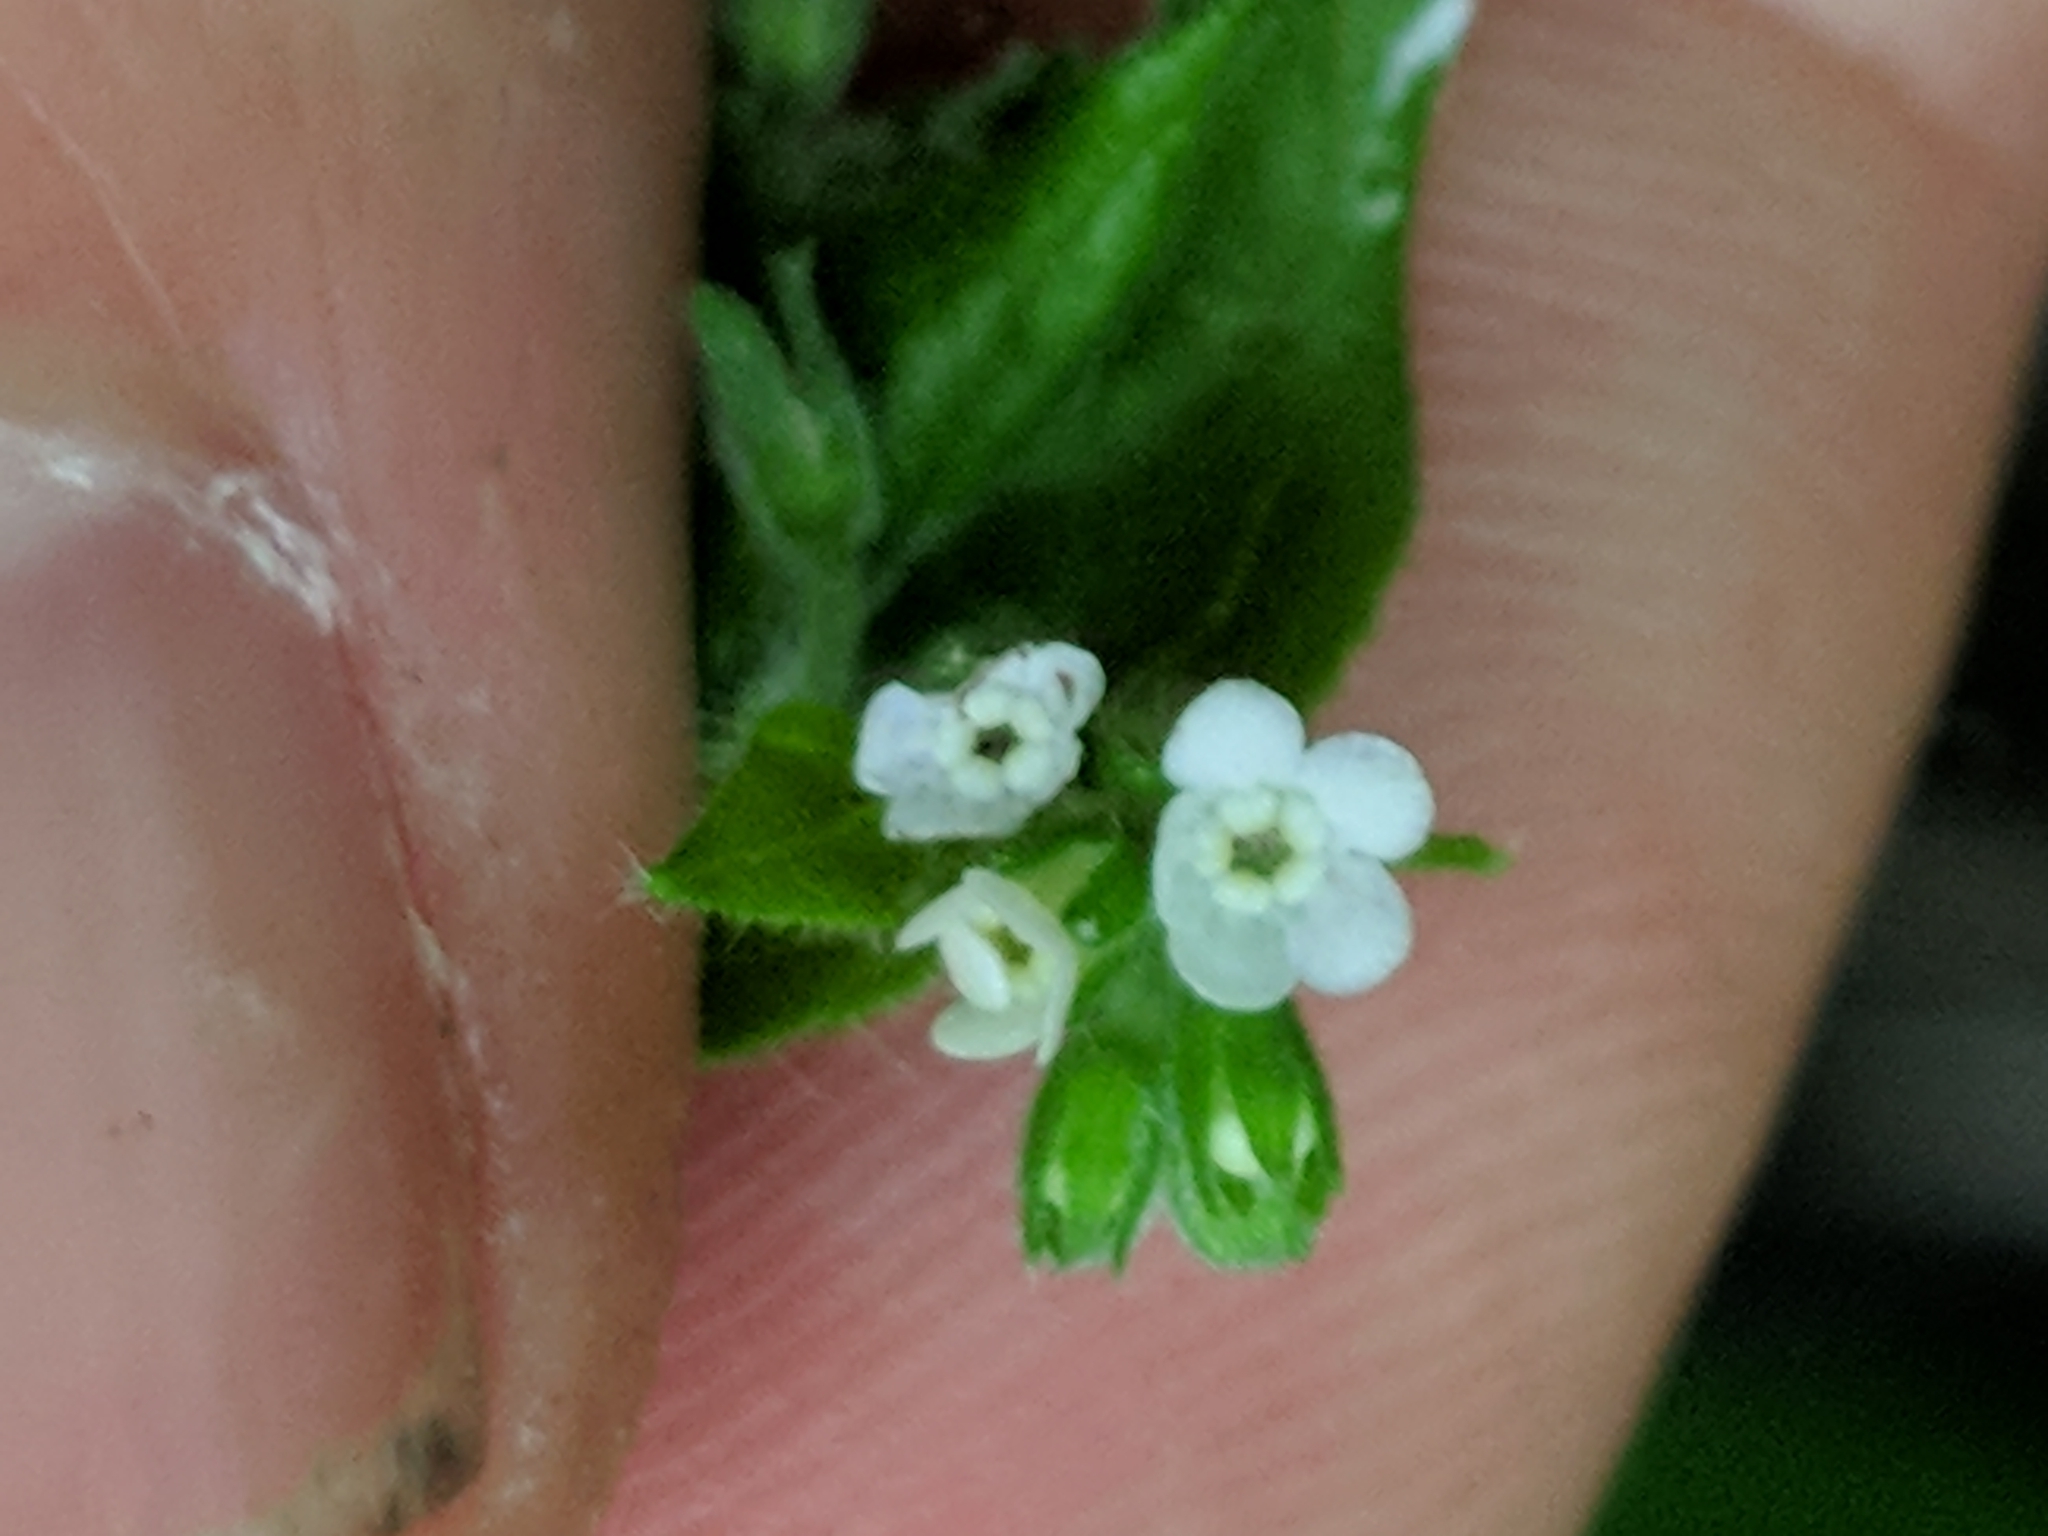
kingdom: Plantae
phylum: Tracheophyta
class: Magnoliopsida
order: Boraginales
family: Boraginaceae
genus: Hackelia
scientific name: Hackelia virginiana
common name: Beggar's-lice
